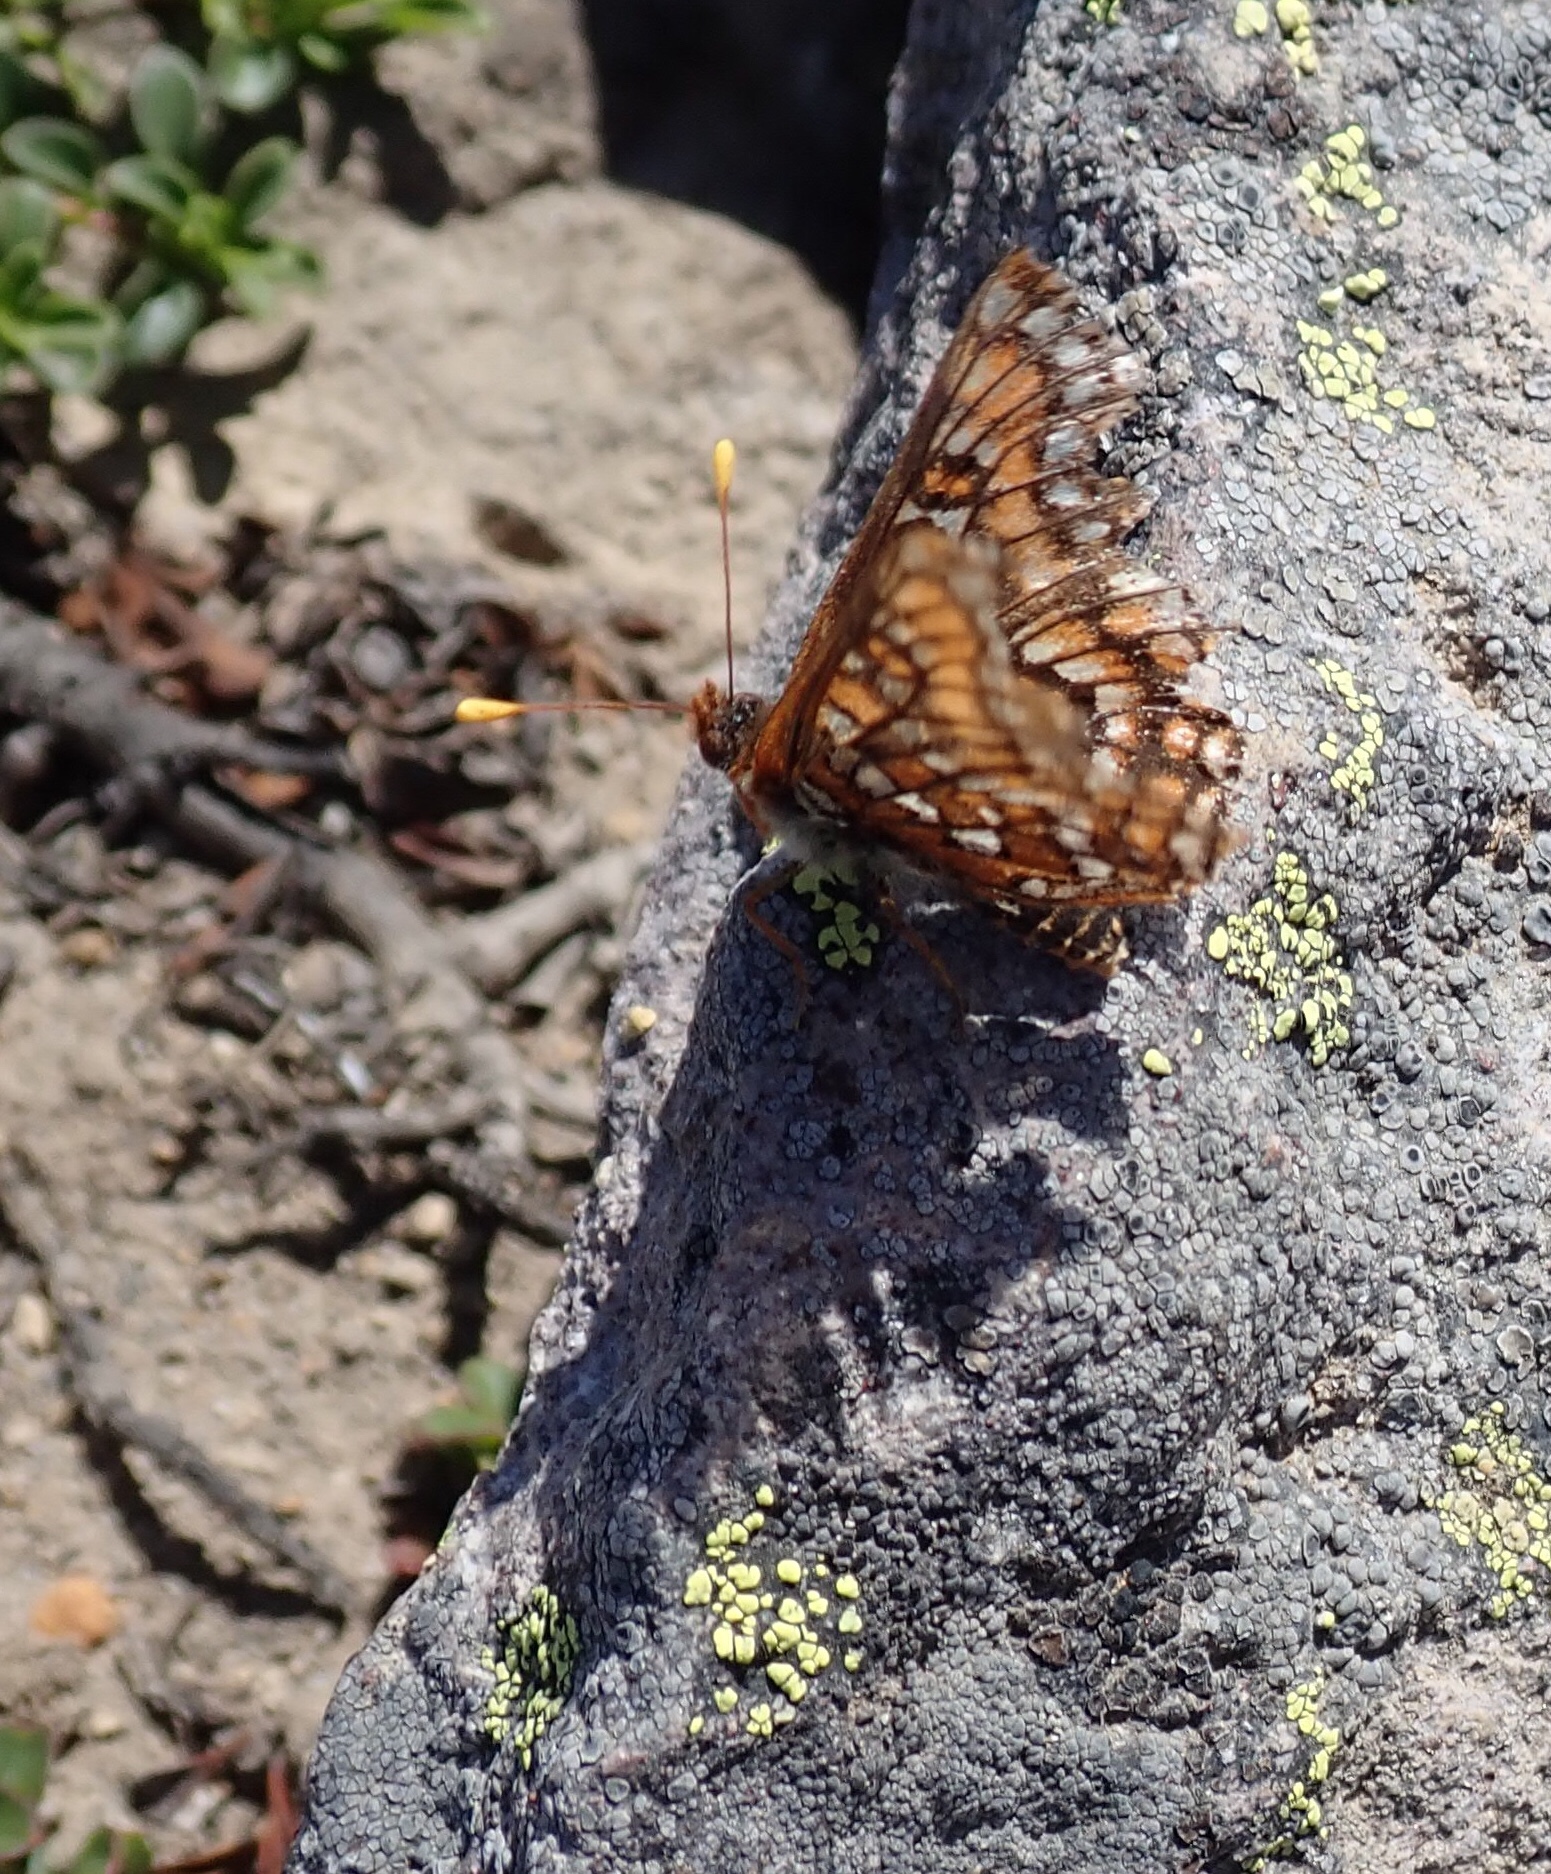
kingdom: Animalia
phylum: Arthropoda
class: Insecta
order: Lepidoptera
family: Nymphalidae
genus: Occidryas
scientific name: Occidryas editha
